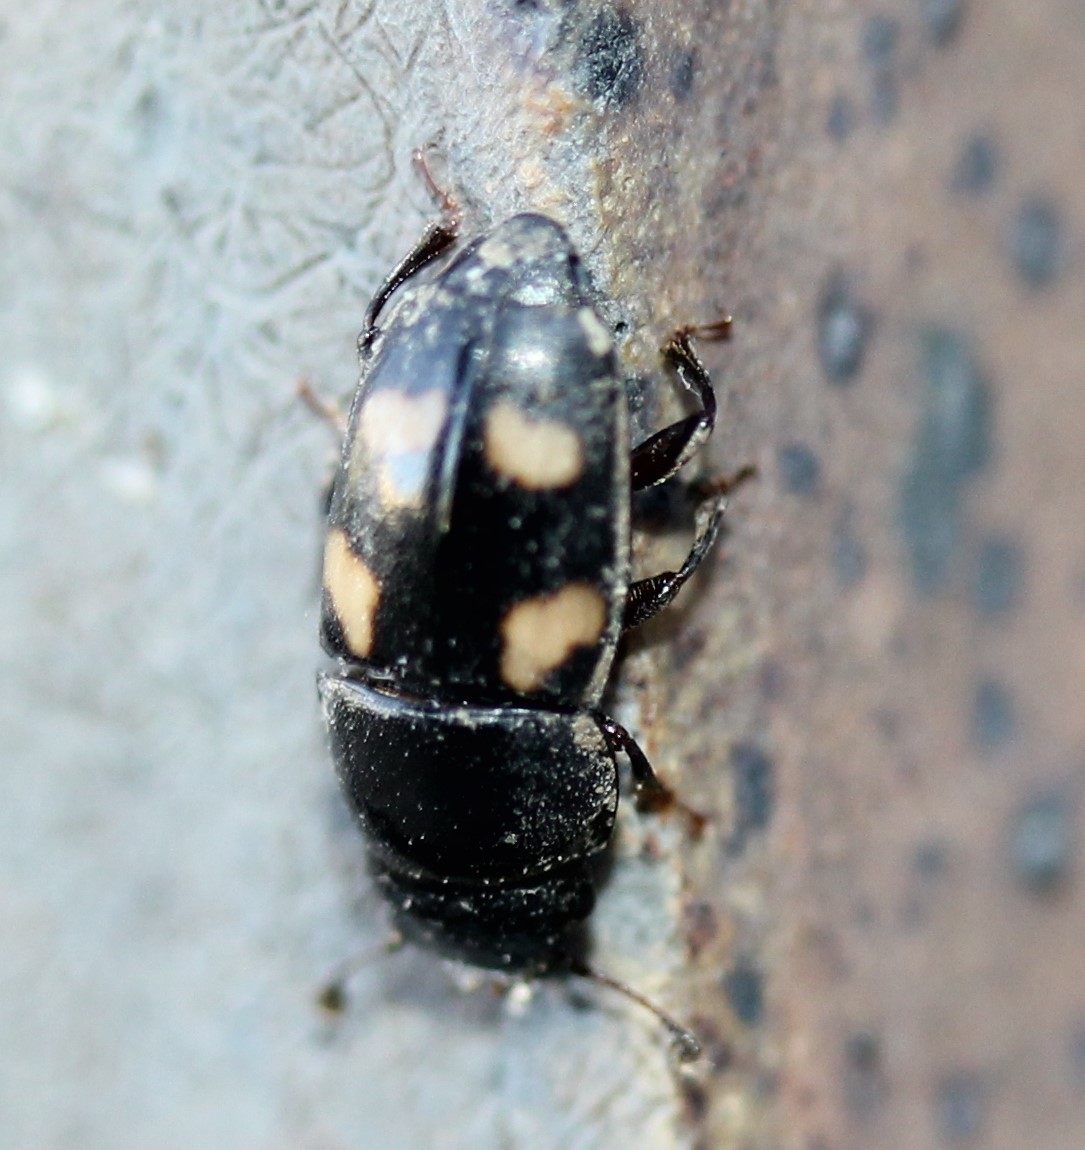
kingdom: Animalia
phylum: Arthropoda
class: Insecta
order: Coleoptera
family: Nitidulidae
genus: Glischrochilus
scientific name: Glischrochilus quadrisignatus
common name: Picnic beetle
